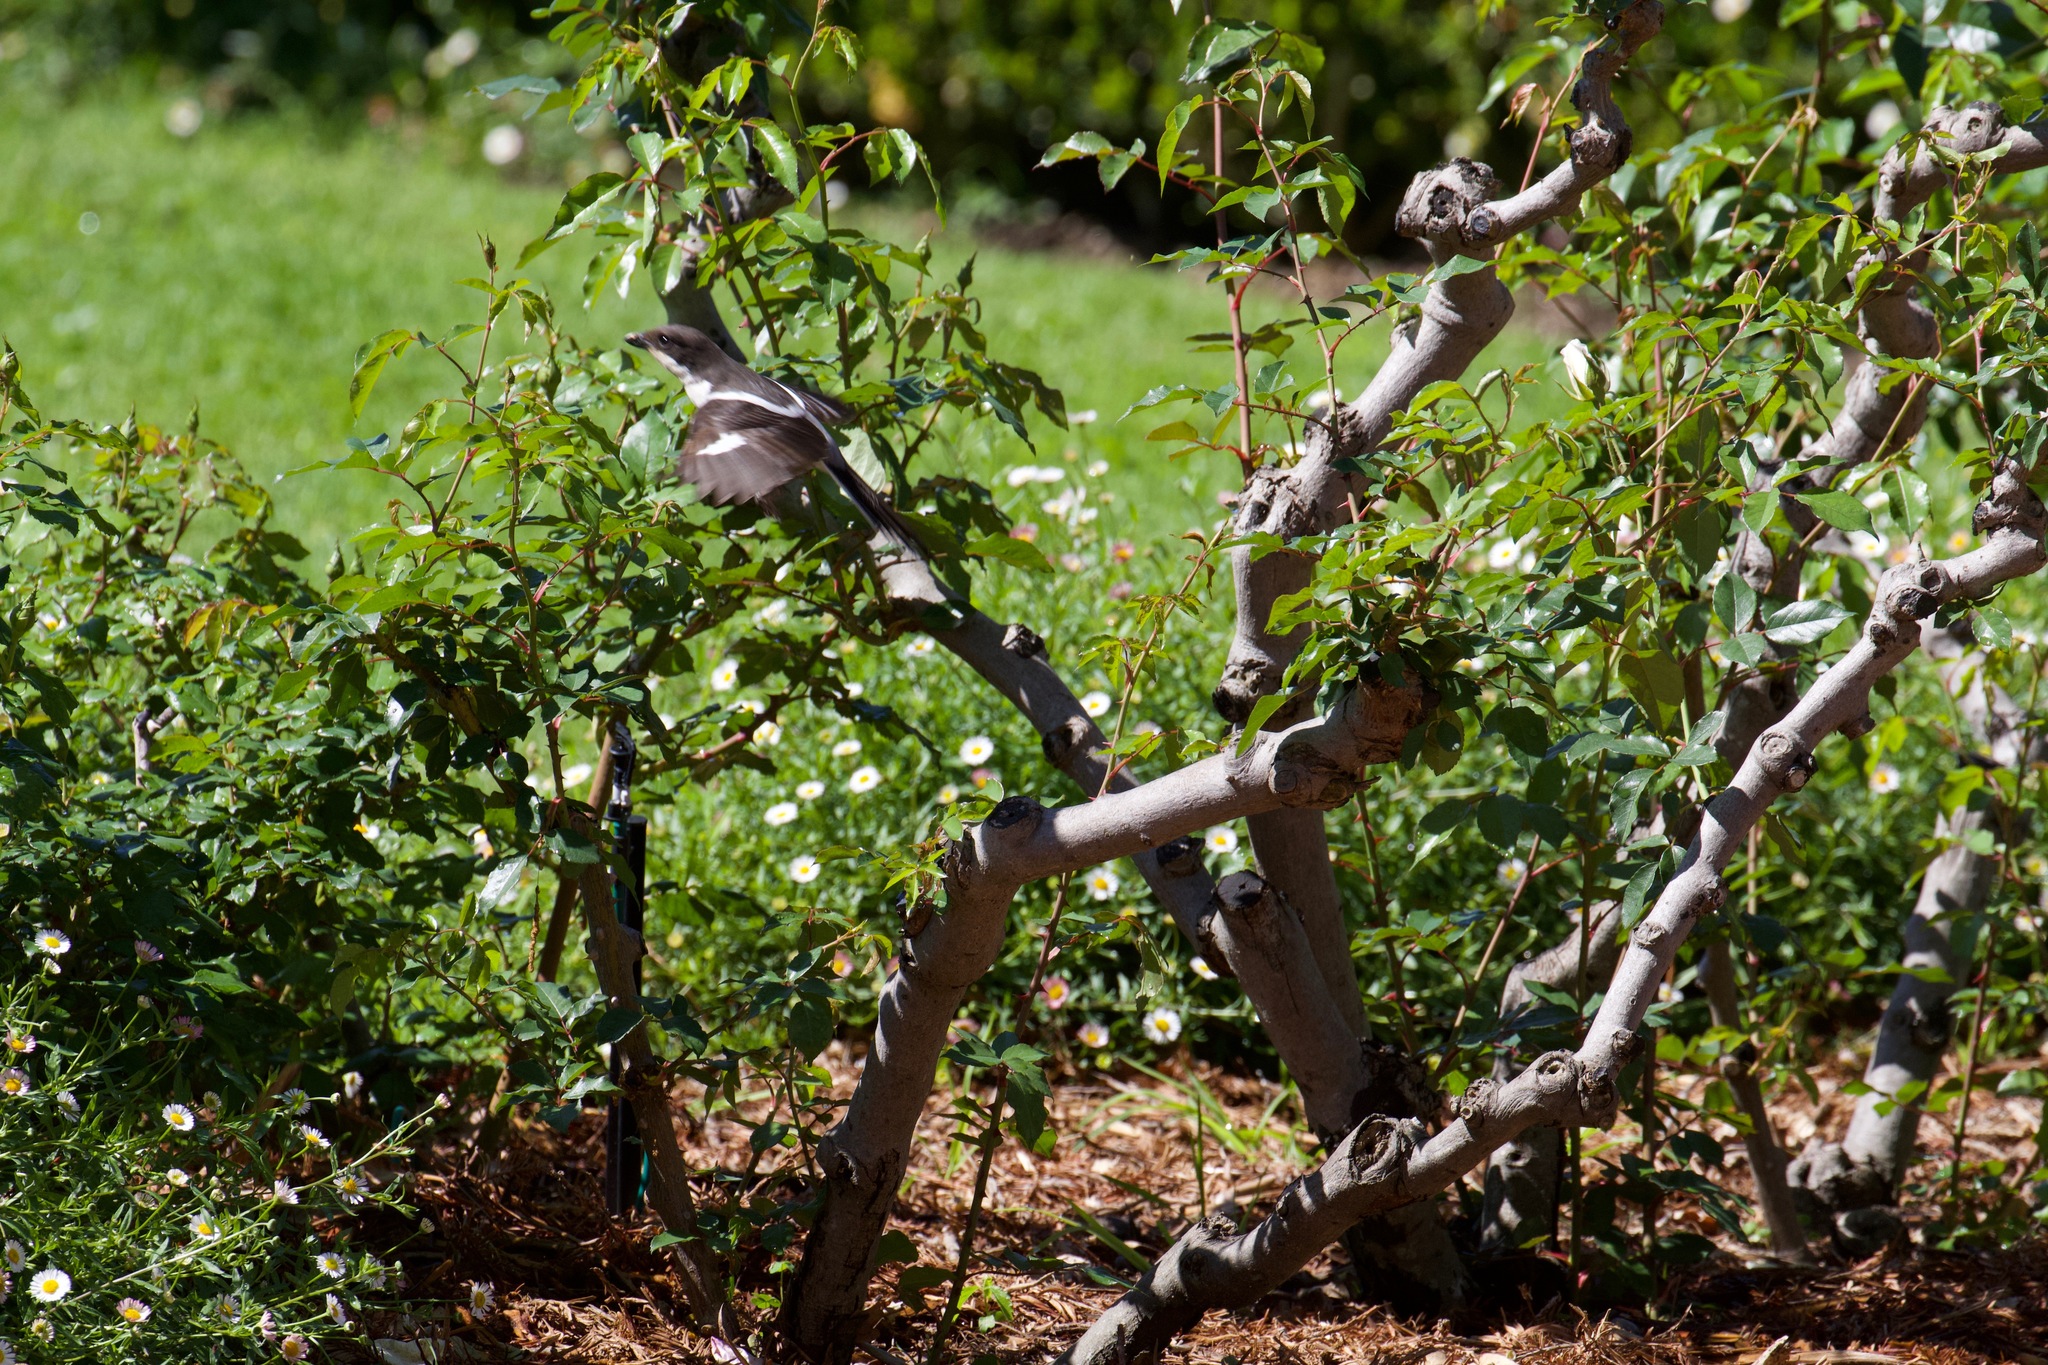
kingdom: Animalia
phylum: Chordata
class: Aves
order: Passeriformes
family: Laniidae
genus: Lanius
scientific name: Lanius collaris
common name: Southern fiscal
